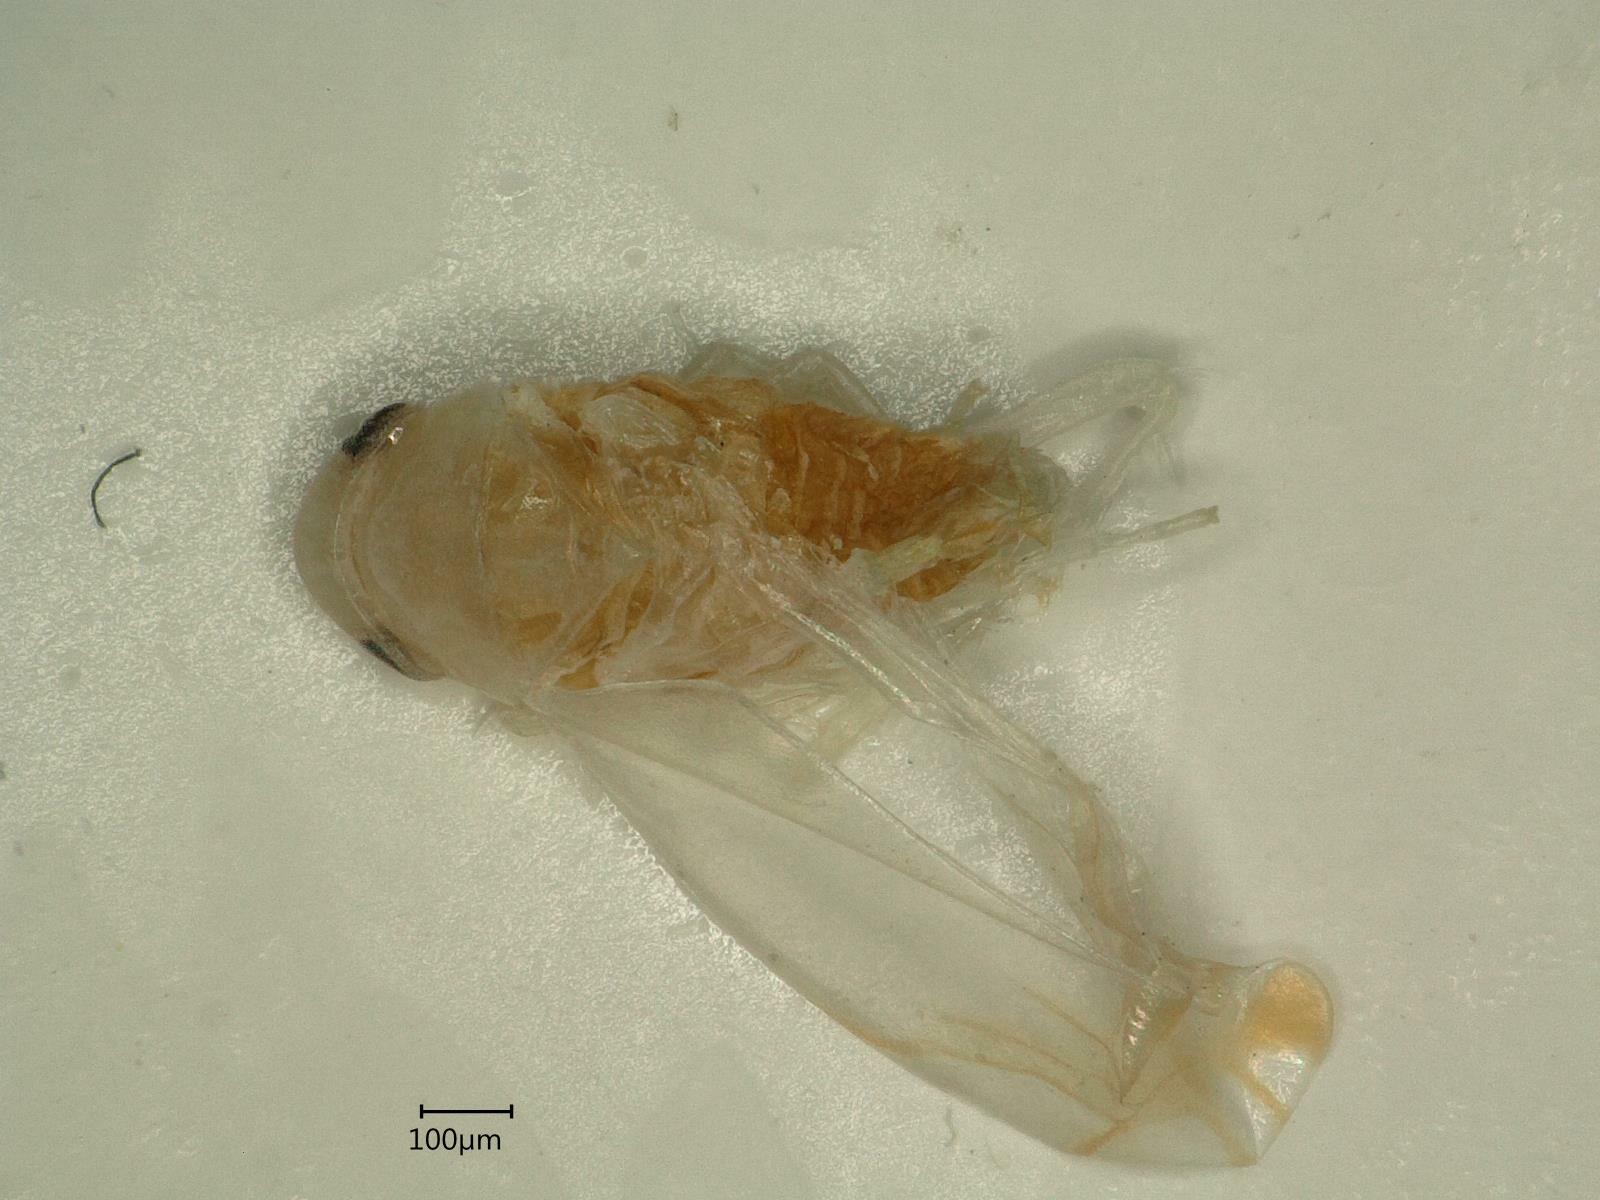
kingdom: Animalia
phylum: Arthropoda
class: Insecta
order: Hemiptera
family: Cicadellidae
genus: Aguriahana
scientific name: Aguriahana stellulata
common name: Leafhopper
